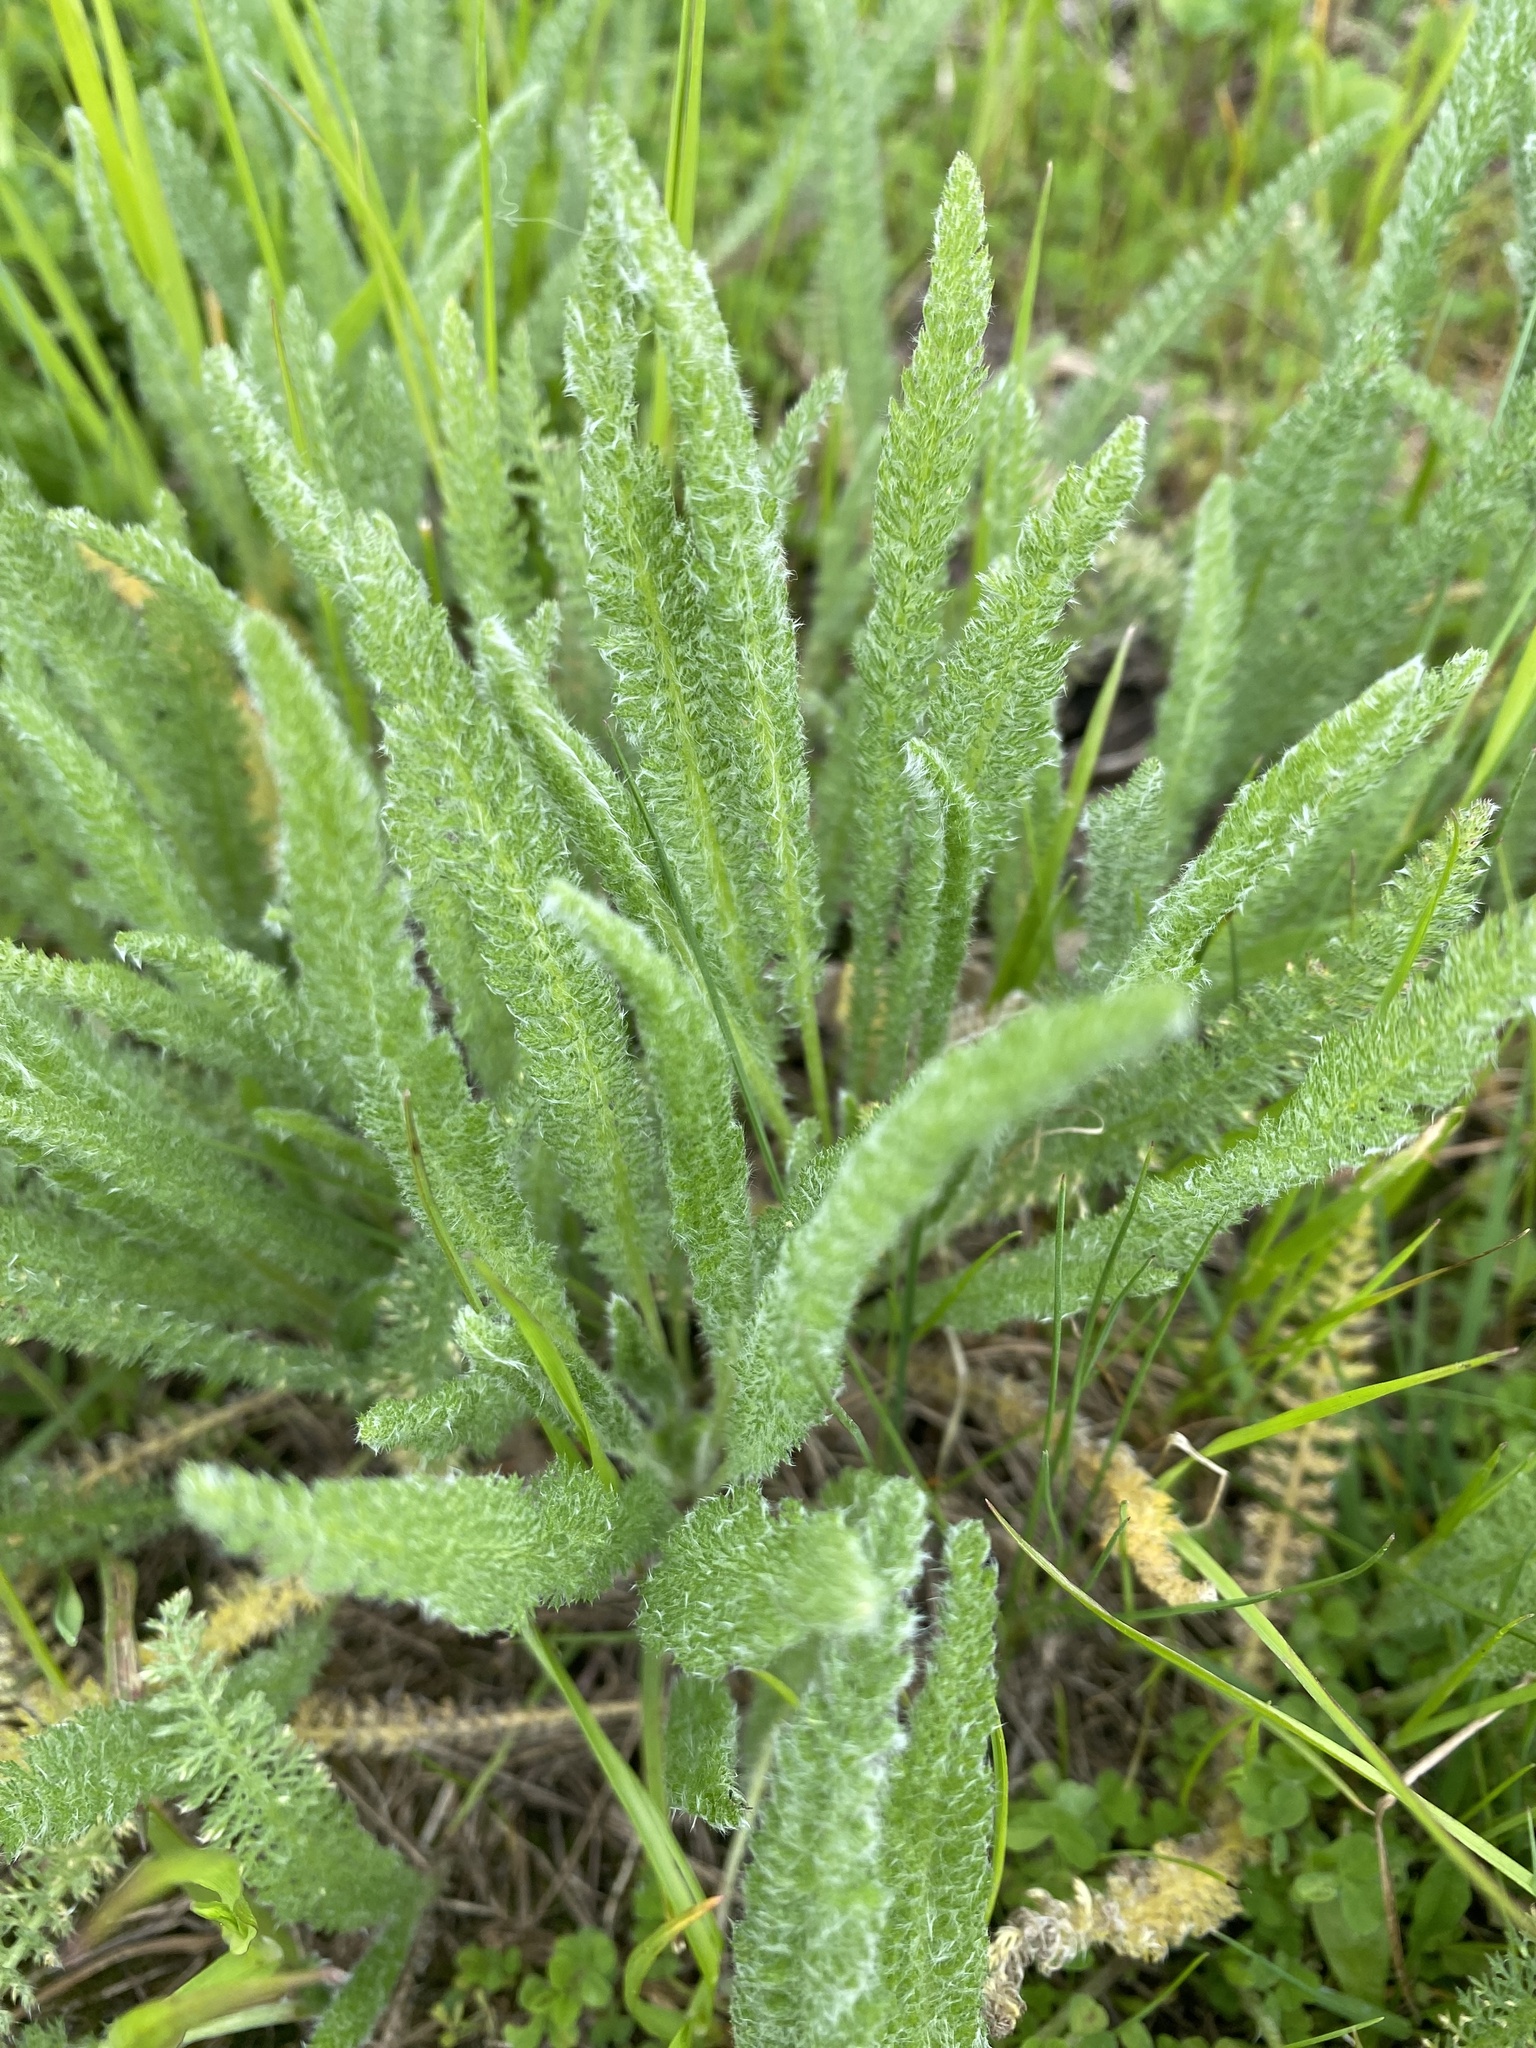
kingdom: Plantae
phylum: Tracheophyta
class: Magnoliopsida
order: Asterales
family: Asteraceae
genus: Achillea
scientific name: Achillea millefolium
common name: Yarrow
